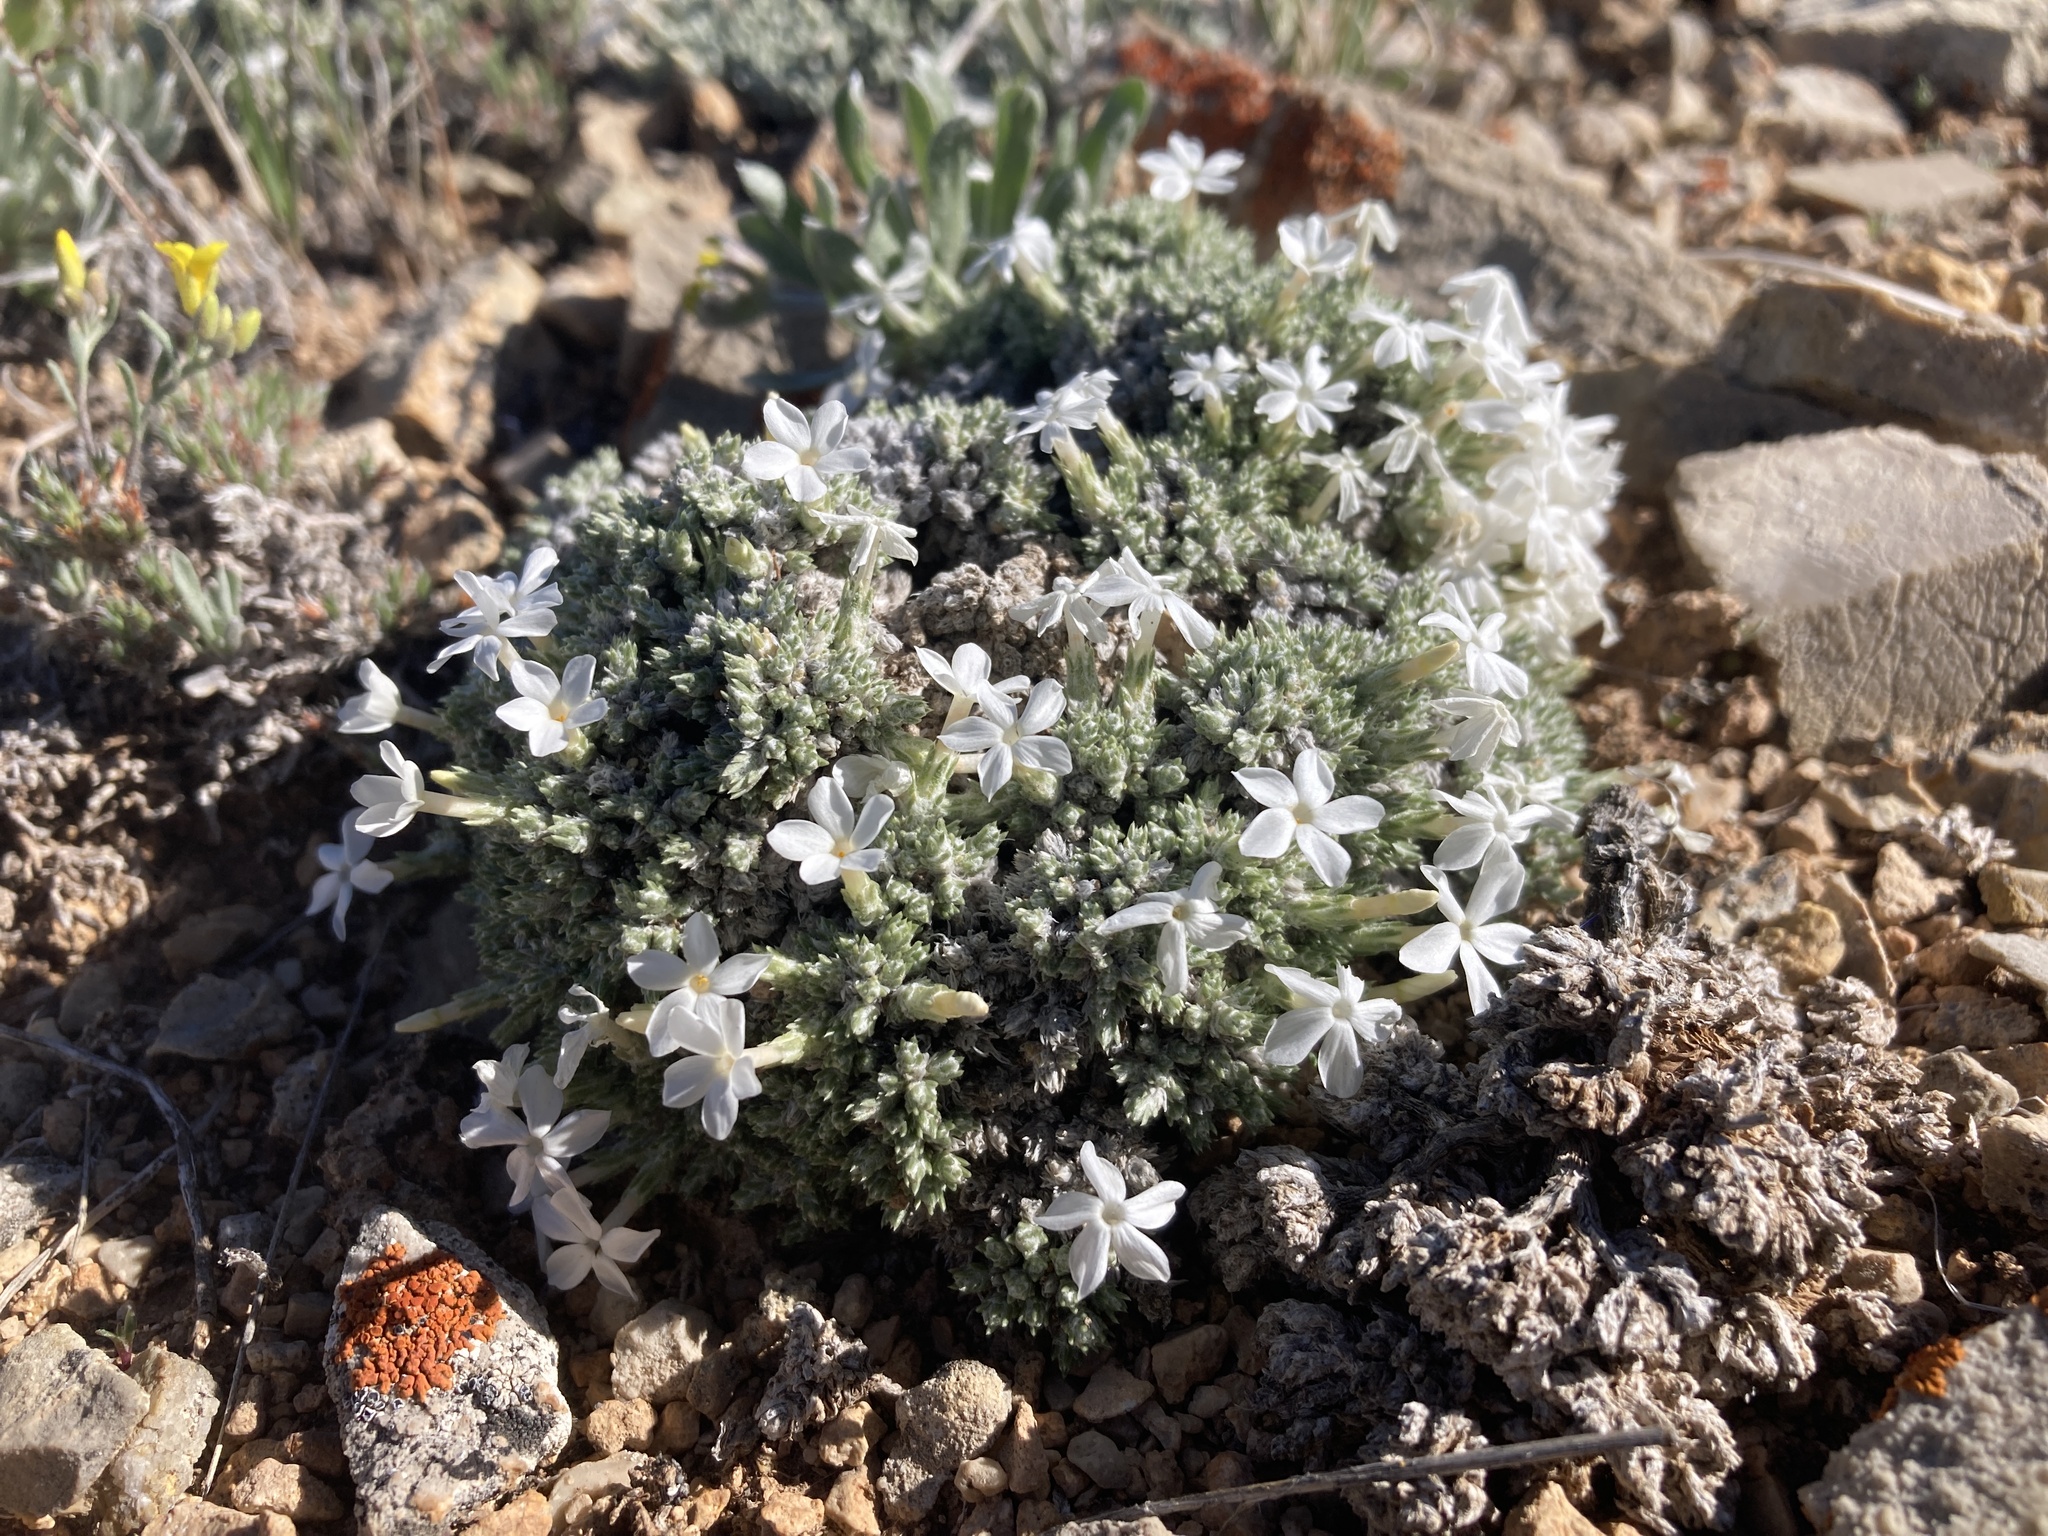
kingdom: Plantae
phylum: Tracheophyta
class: Magnoliopsida
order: Ericales
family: Polemoniaceae
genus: Phlox
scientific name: Phlox hoodii
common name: Moss phlox
